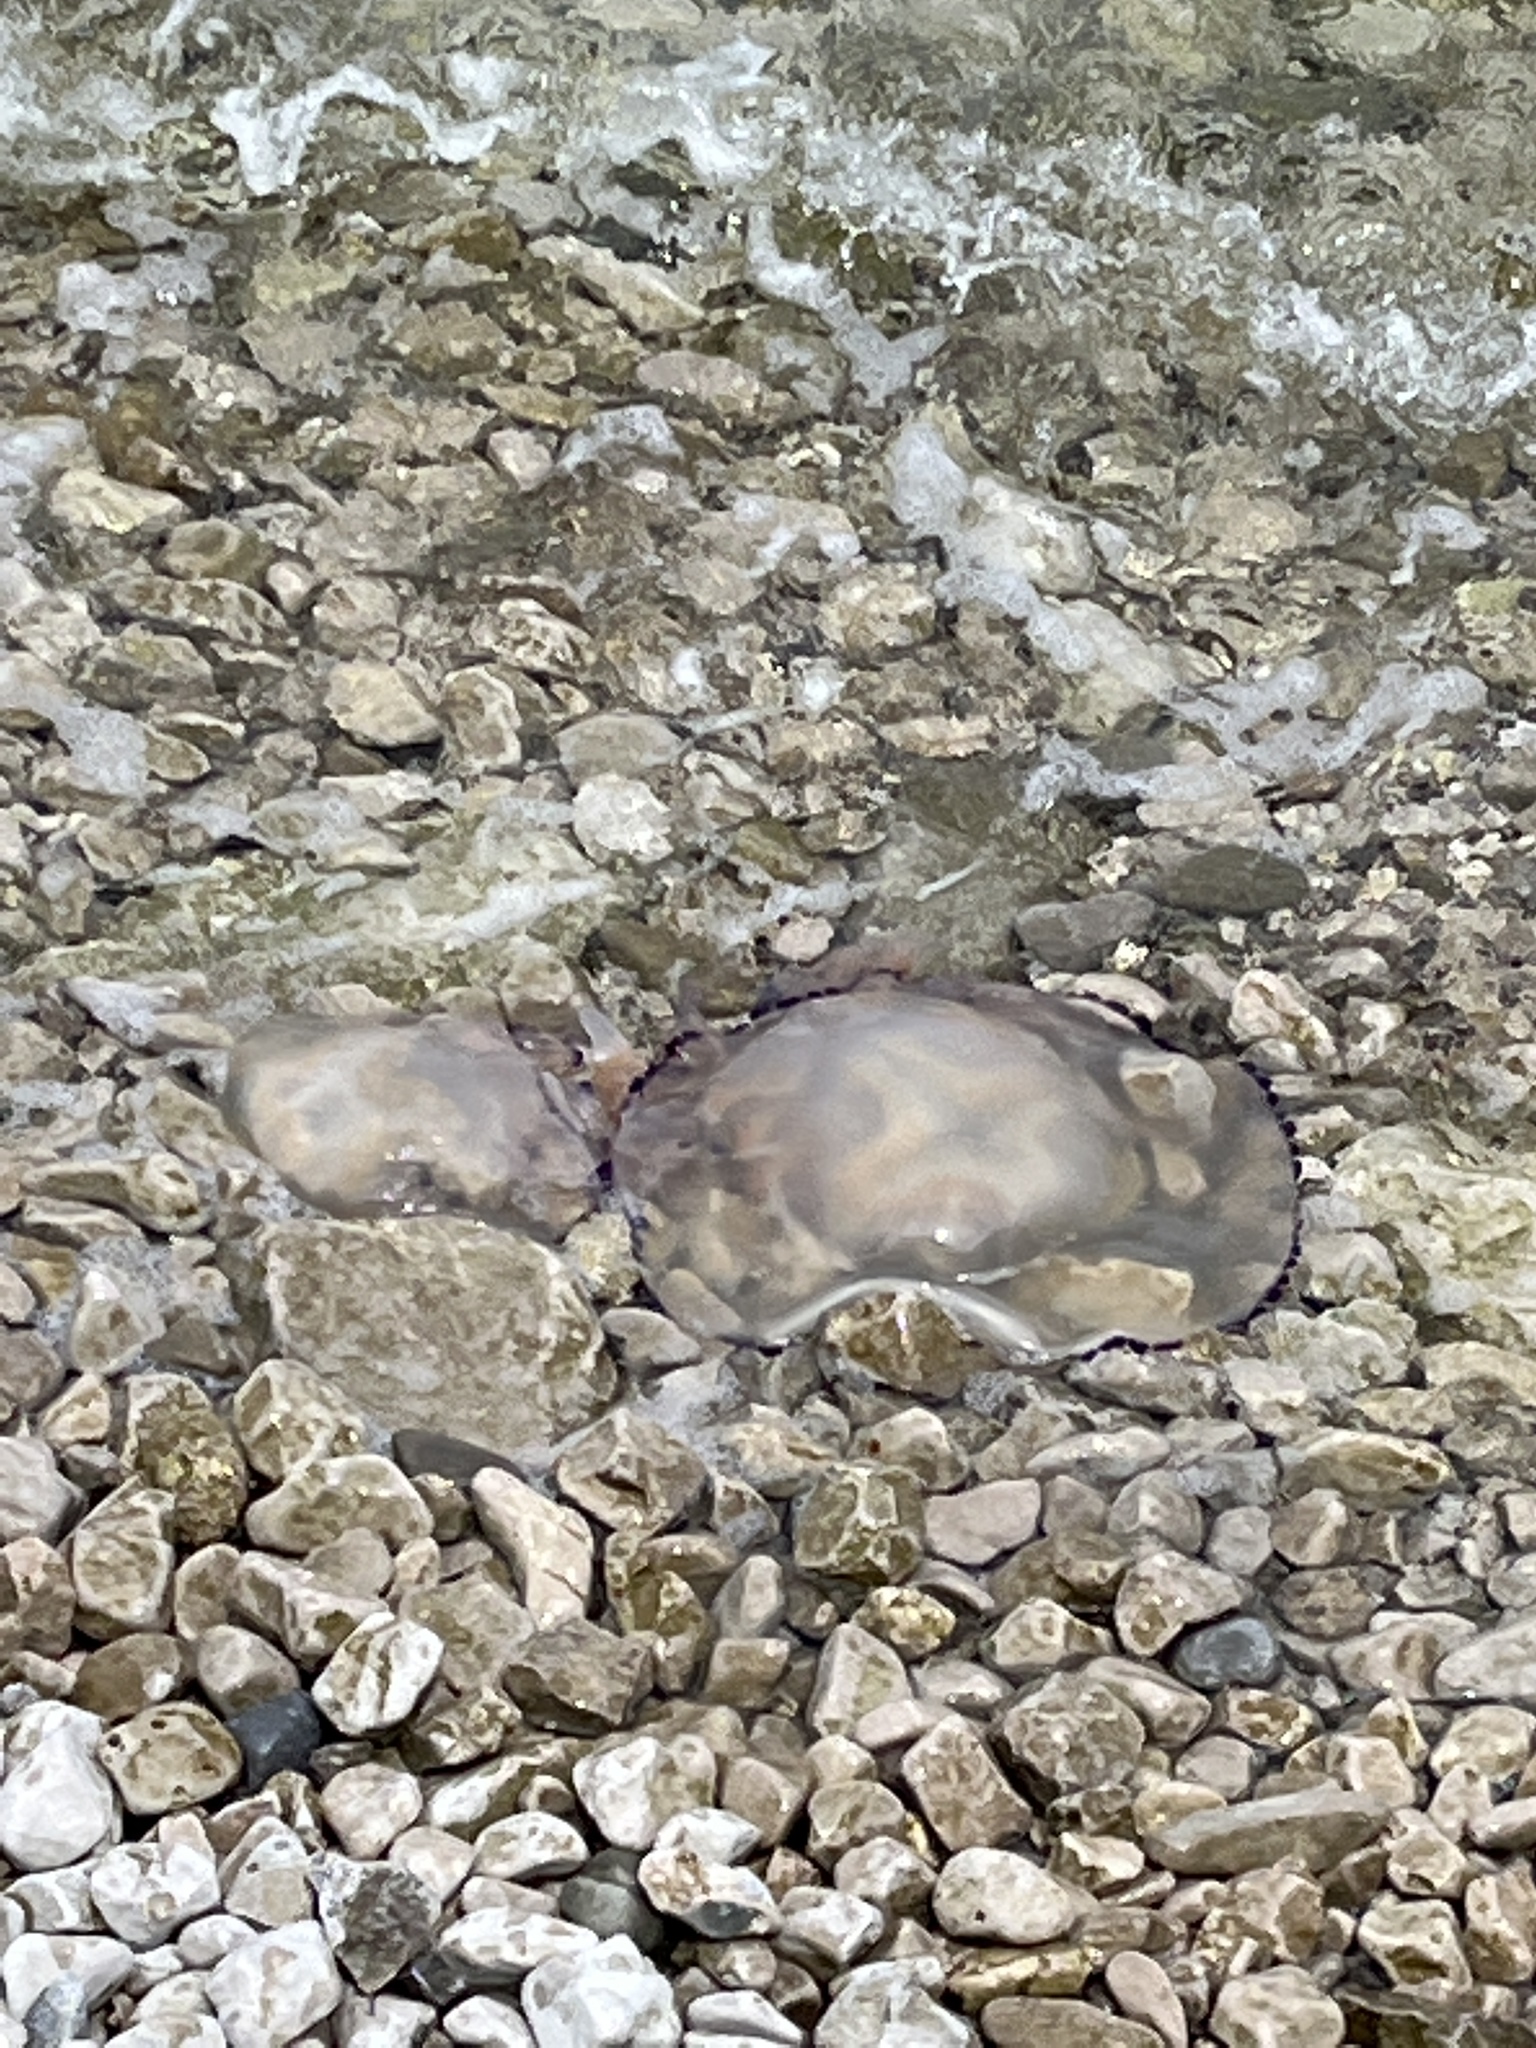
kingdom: Animalia
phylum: Cnidaria
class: Scyphozoa
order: Rhizostomeae
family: Rhizostomatidae
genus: Rhizostoma
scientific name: Rhizostoma pulmo
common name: Barrel jellyfish
